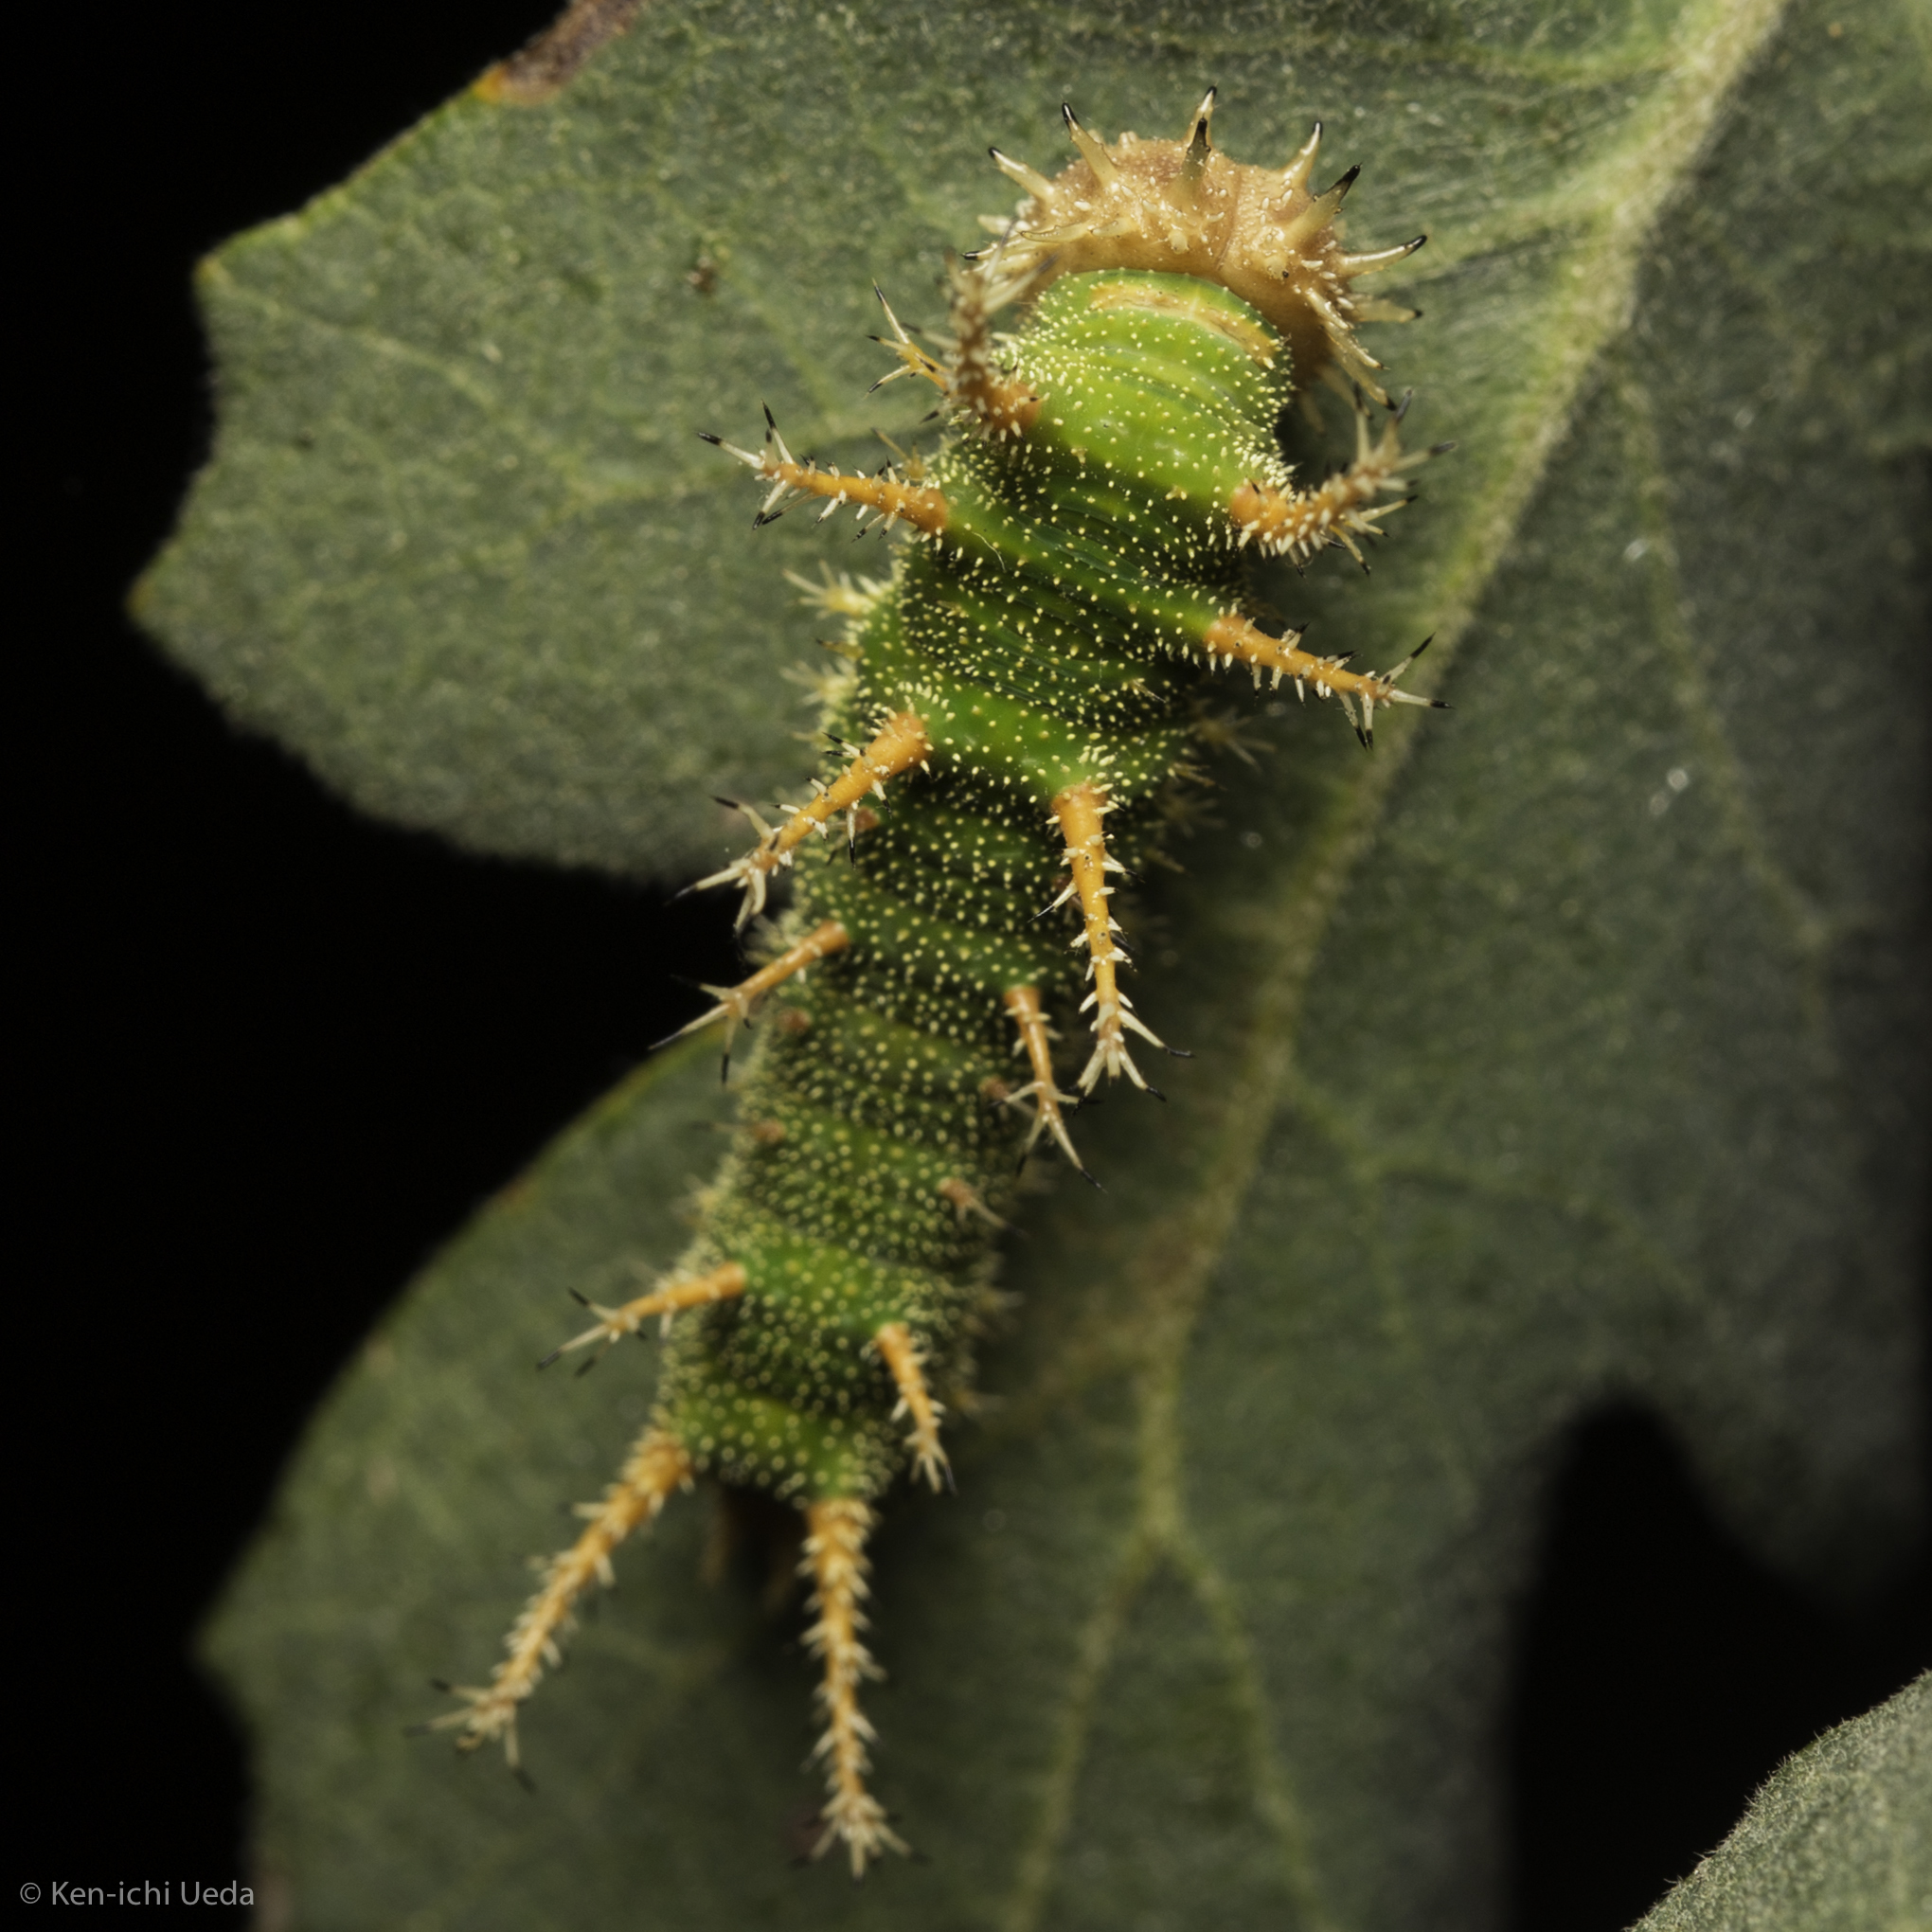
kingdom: Animalia
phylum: Arthropoda
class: Insecta
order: Lepidoptera
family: Nymphalidae
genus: Limenitis
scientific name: Limenitis bredowii
